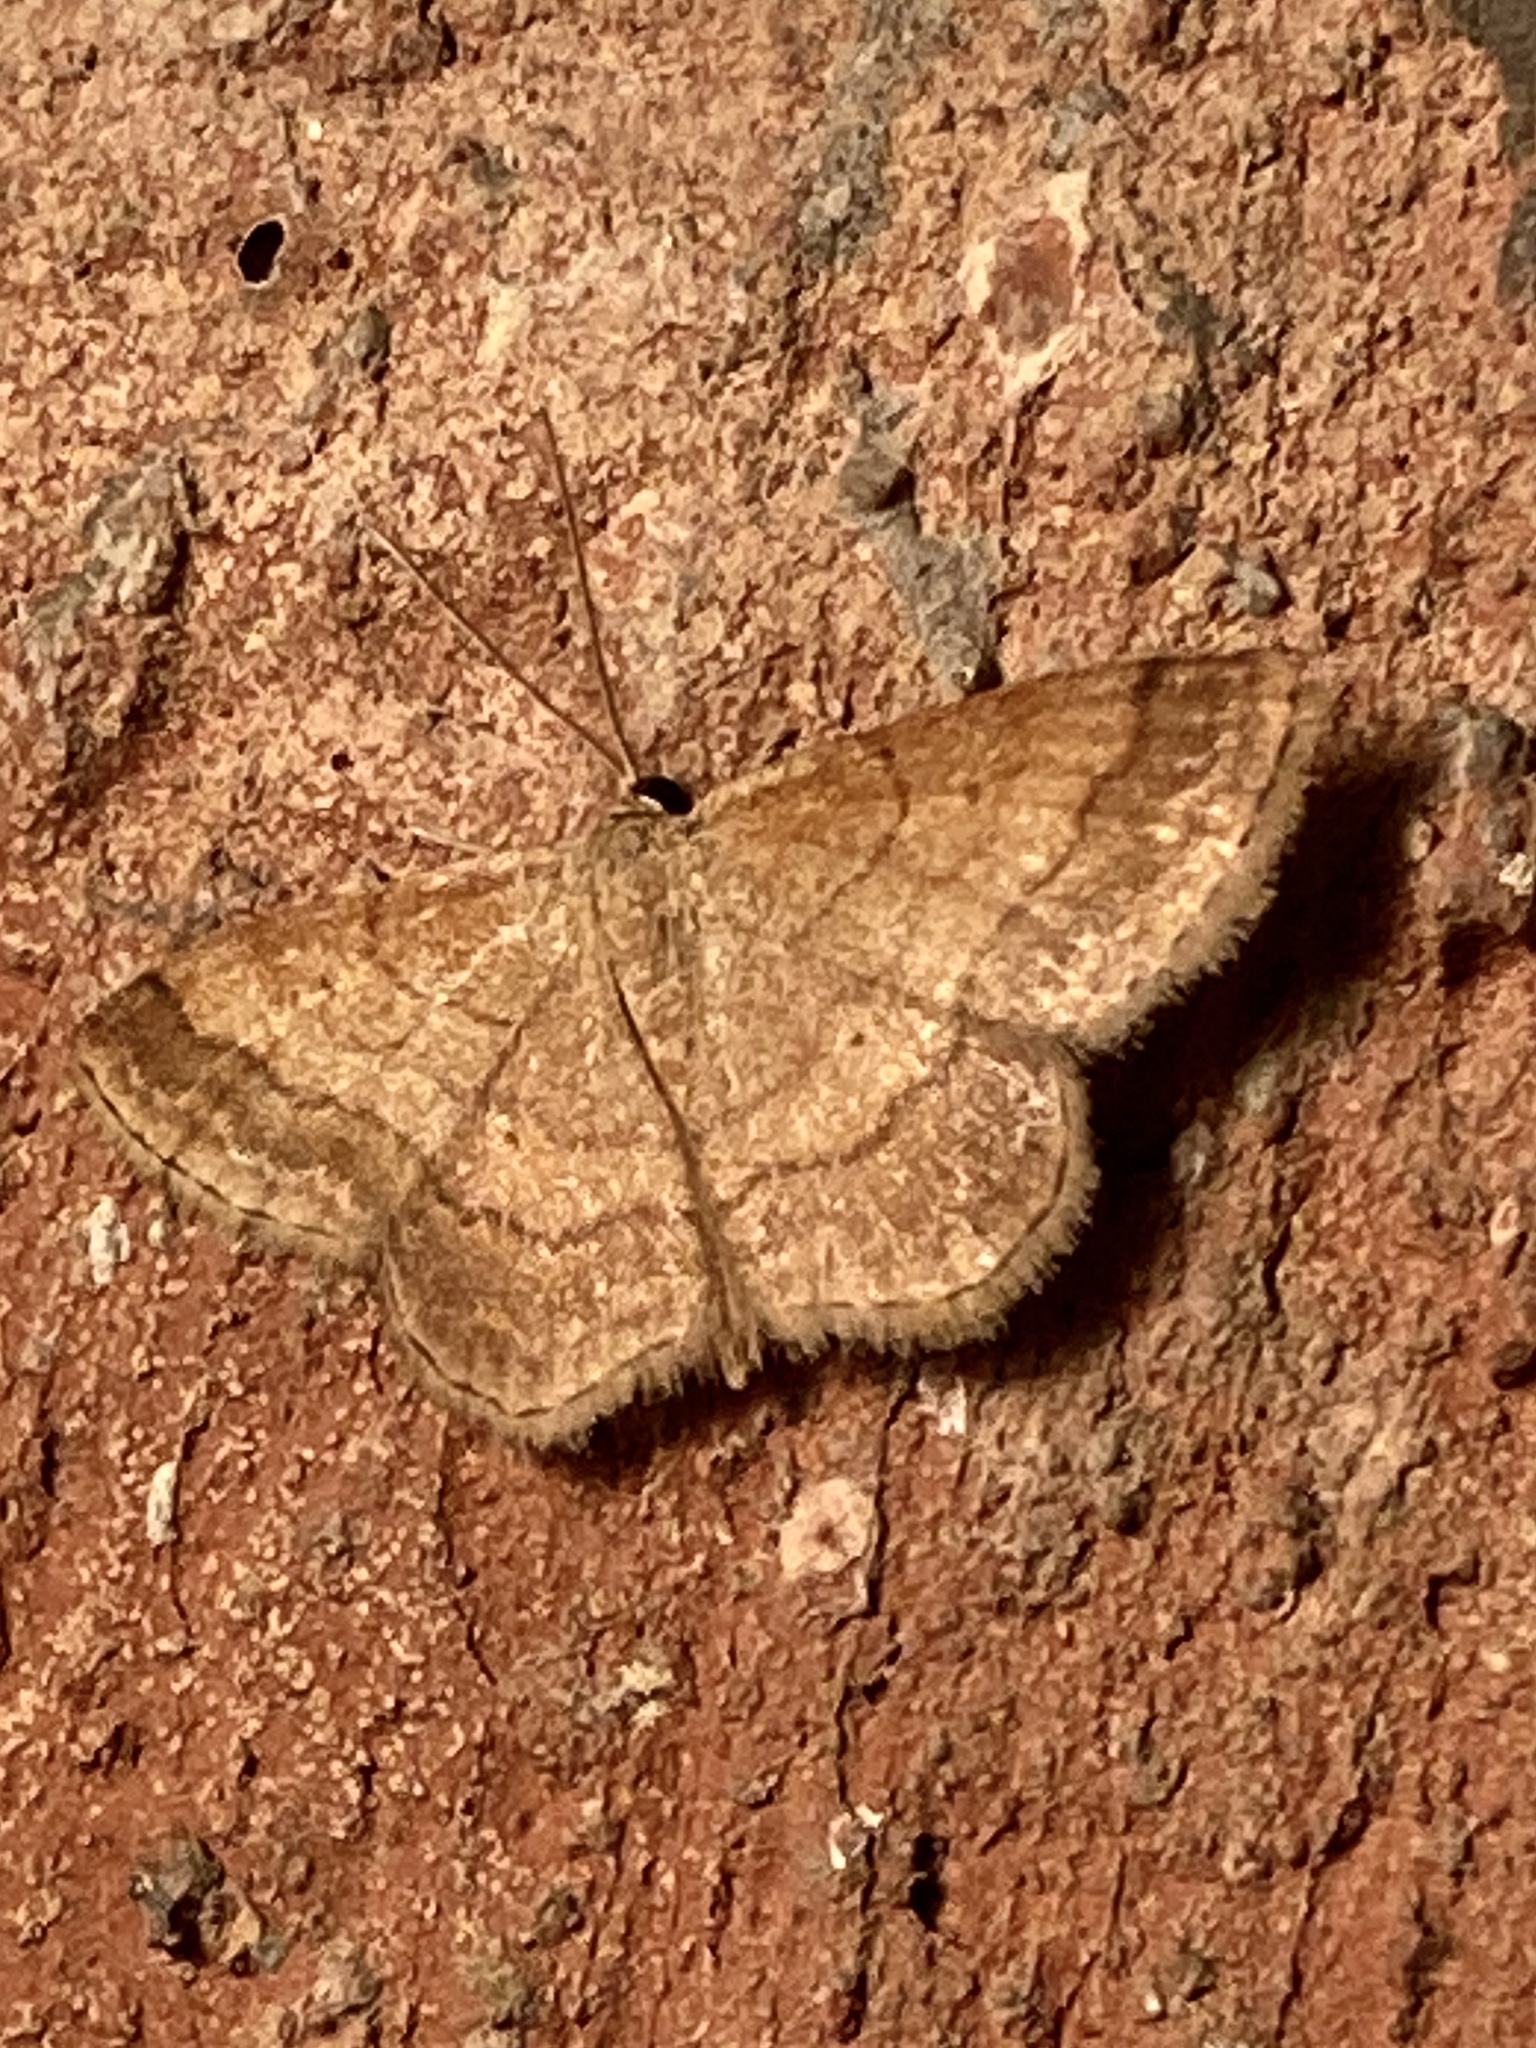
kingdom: Animalia
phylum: Arthropoda
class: Insecta
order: Lepidoptera
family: Geometridae
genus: Scopula
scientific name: Scopula rubiginata
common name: Tawny wave
